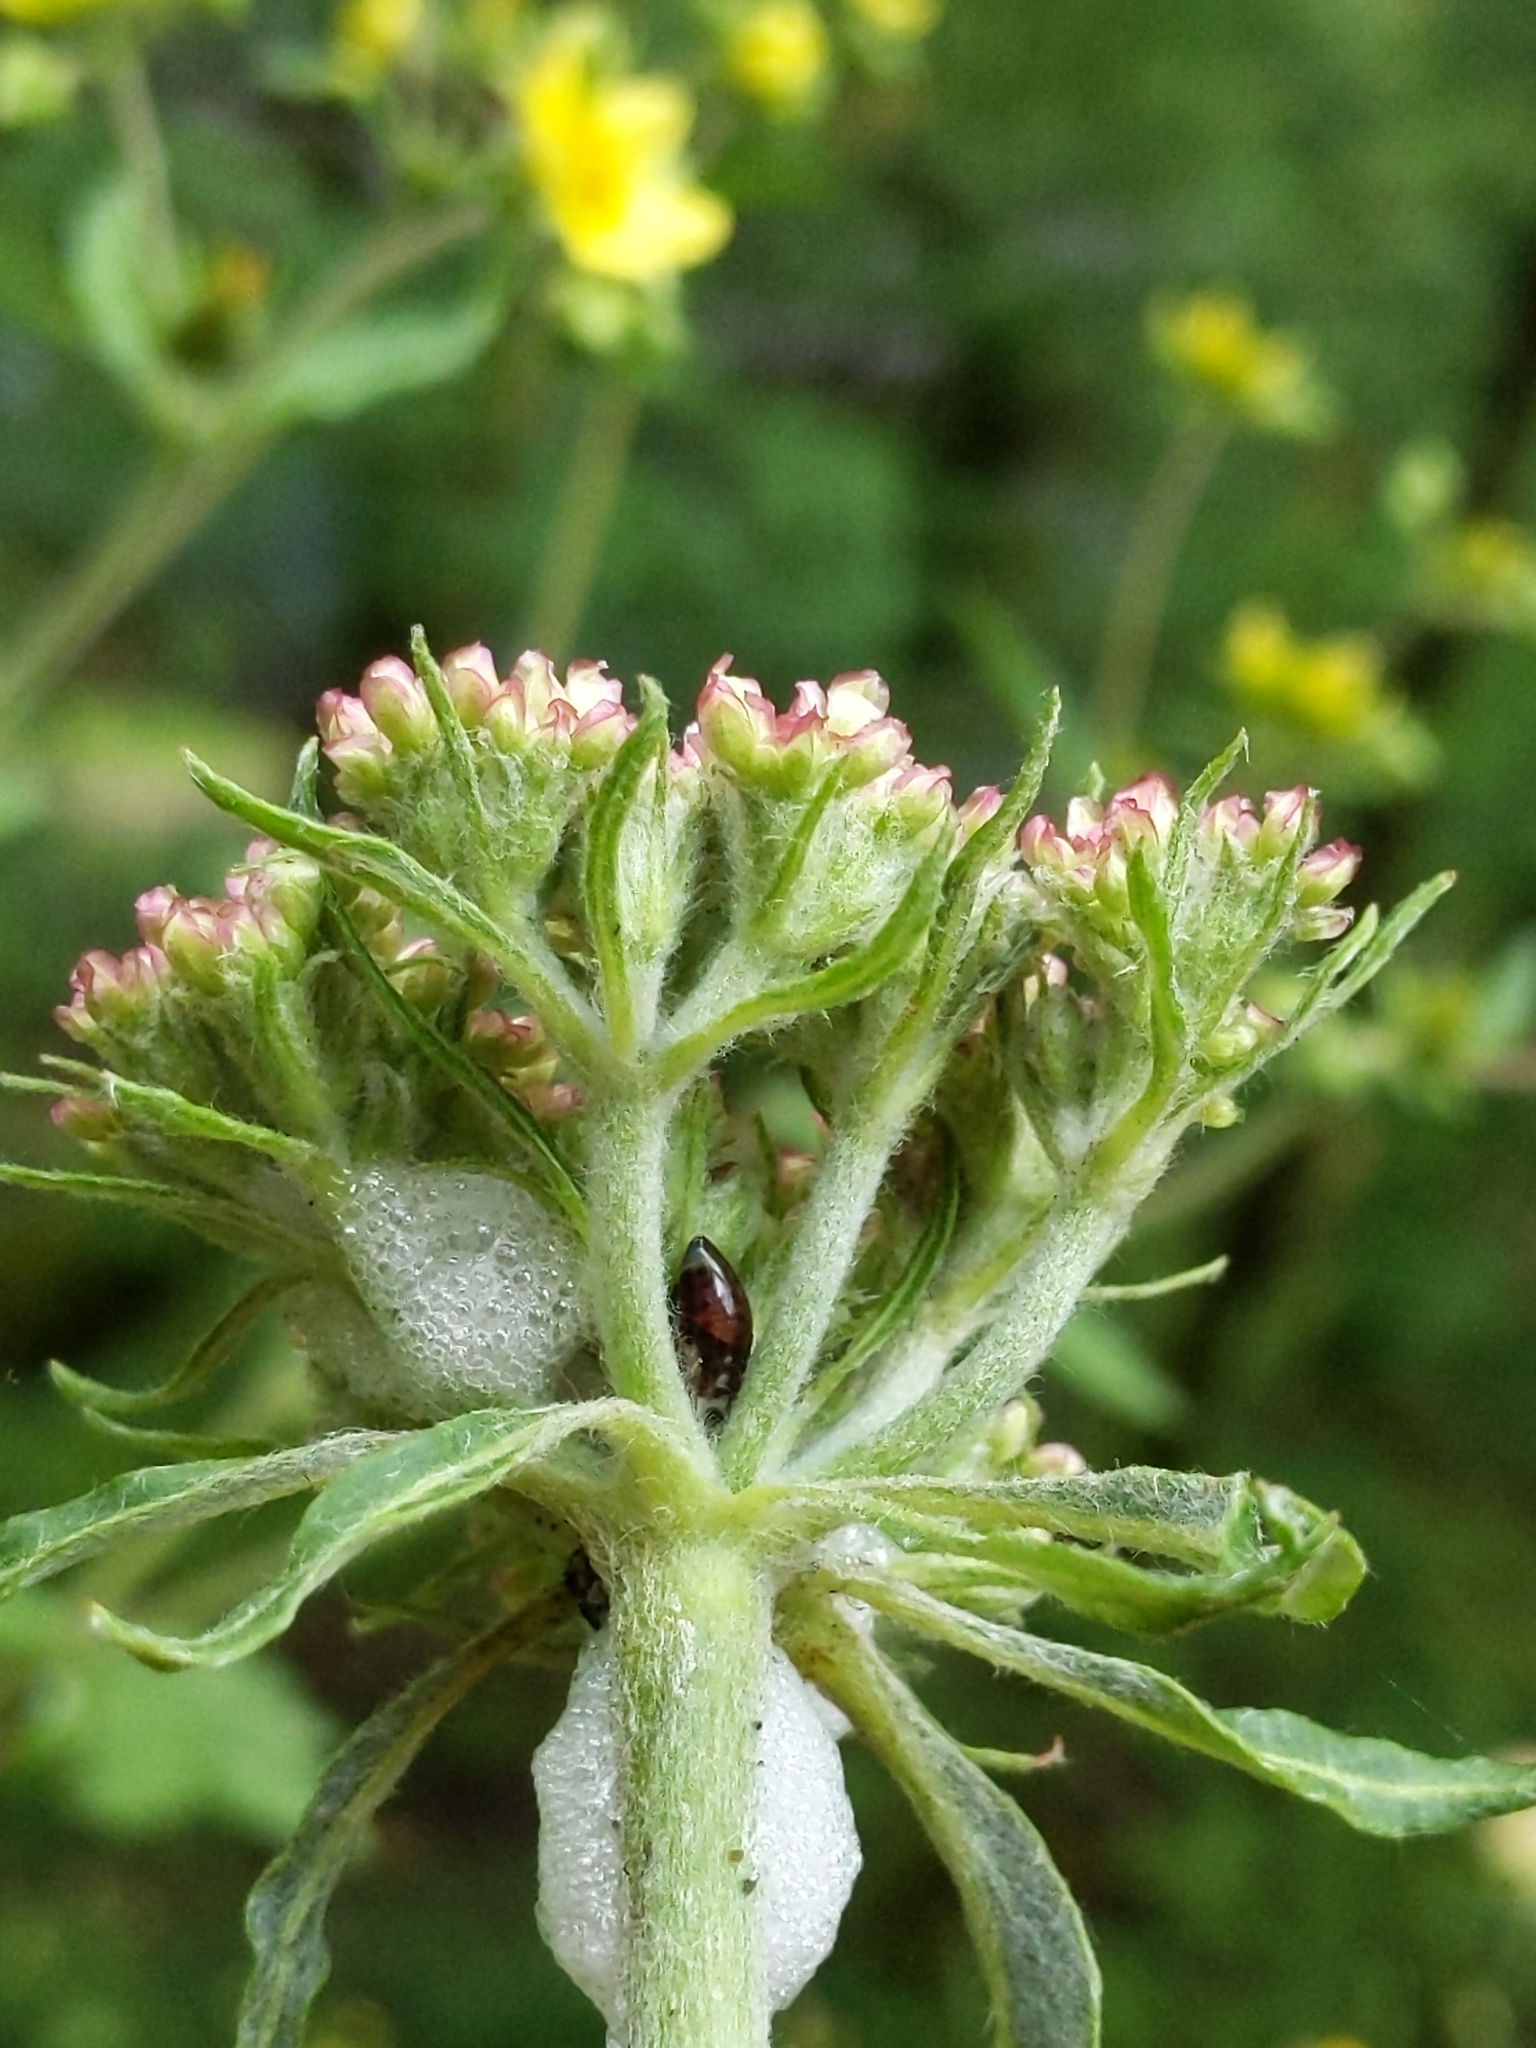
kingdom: Plantae
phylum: Tracheophyta
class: Magnoliopsida
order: Caryophyllales
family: Polygonaceae
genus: Eriogonum
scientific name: Eriogonum compositum
